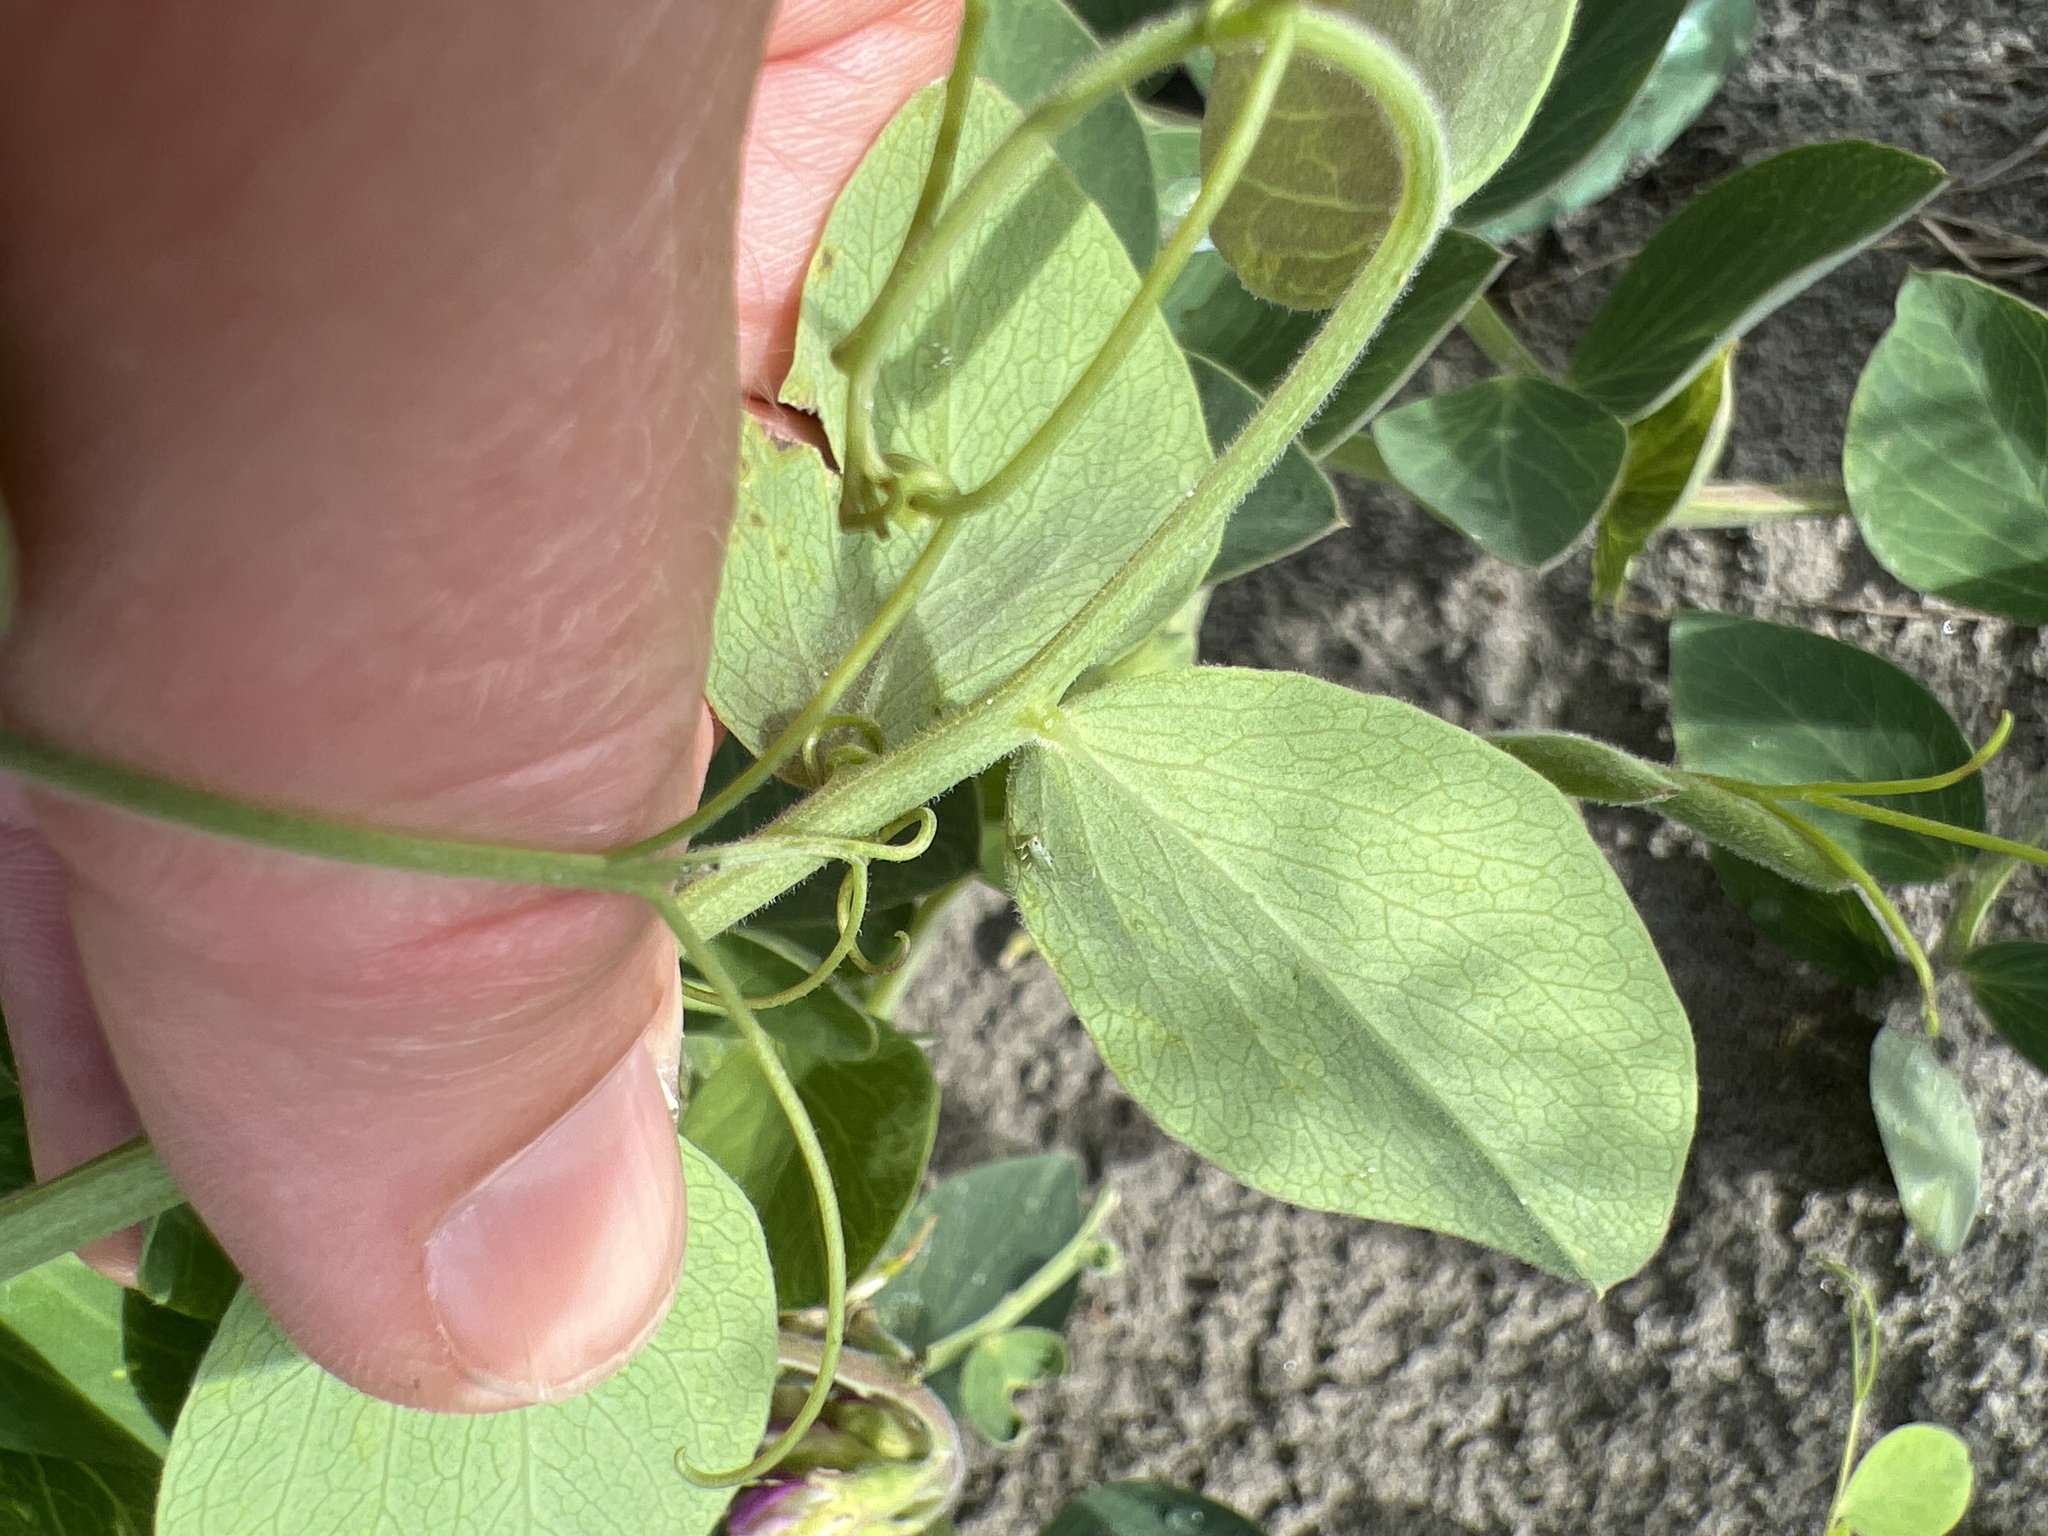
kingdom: Plantae
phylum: Tracheophyta
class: Magnoliopsida
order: Fabales
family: Fabaceae
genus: Lathyrus
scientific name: Lathyrus japonicus
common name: Sea pea
